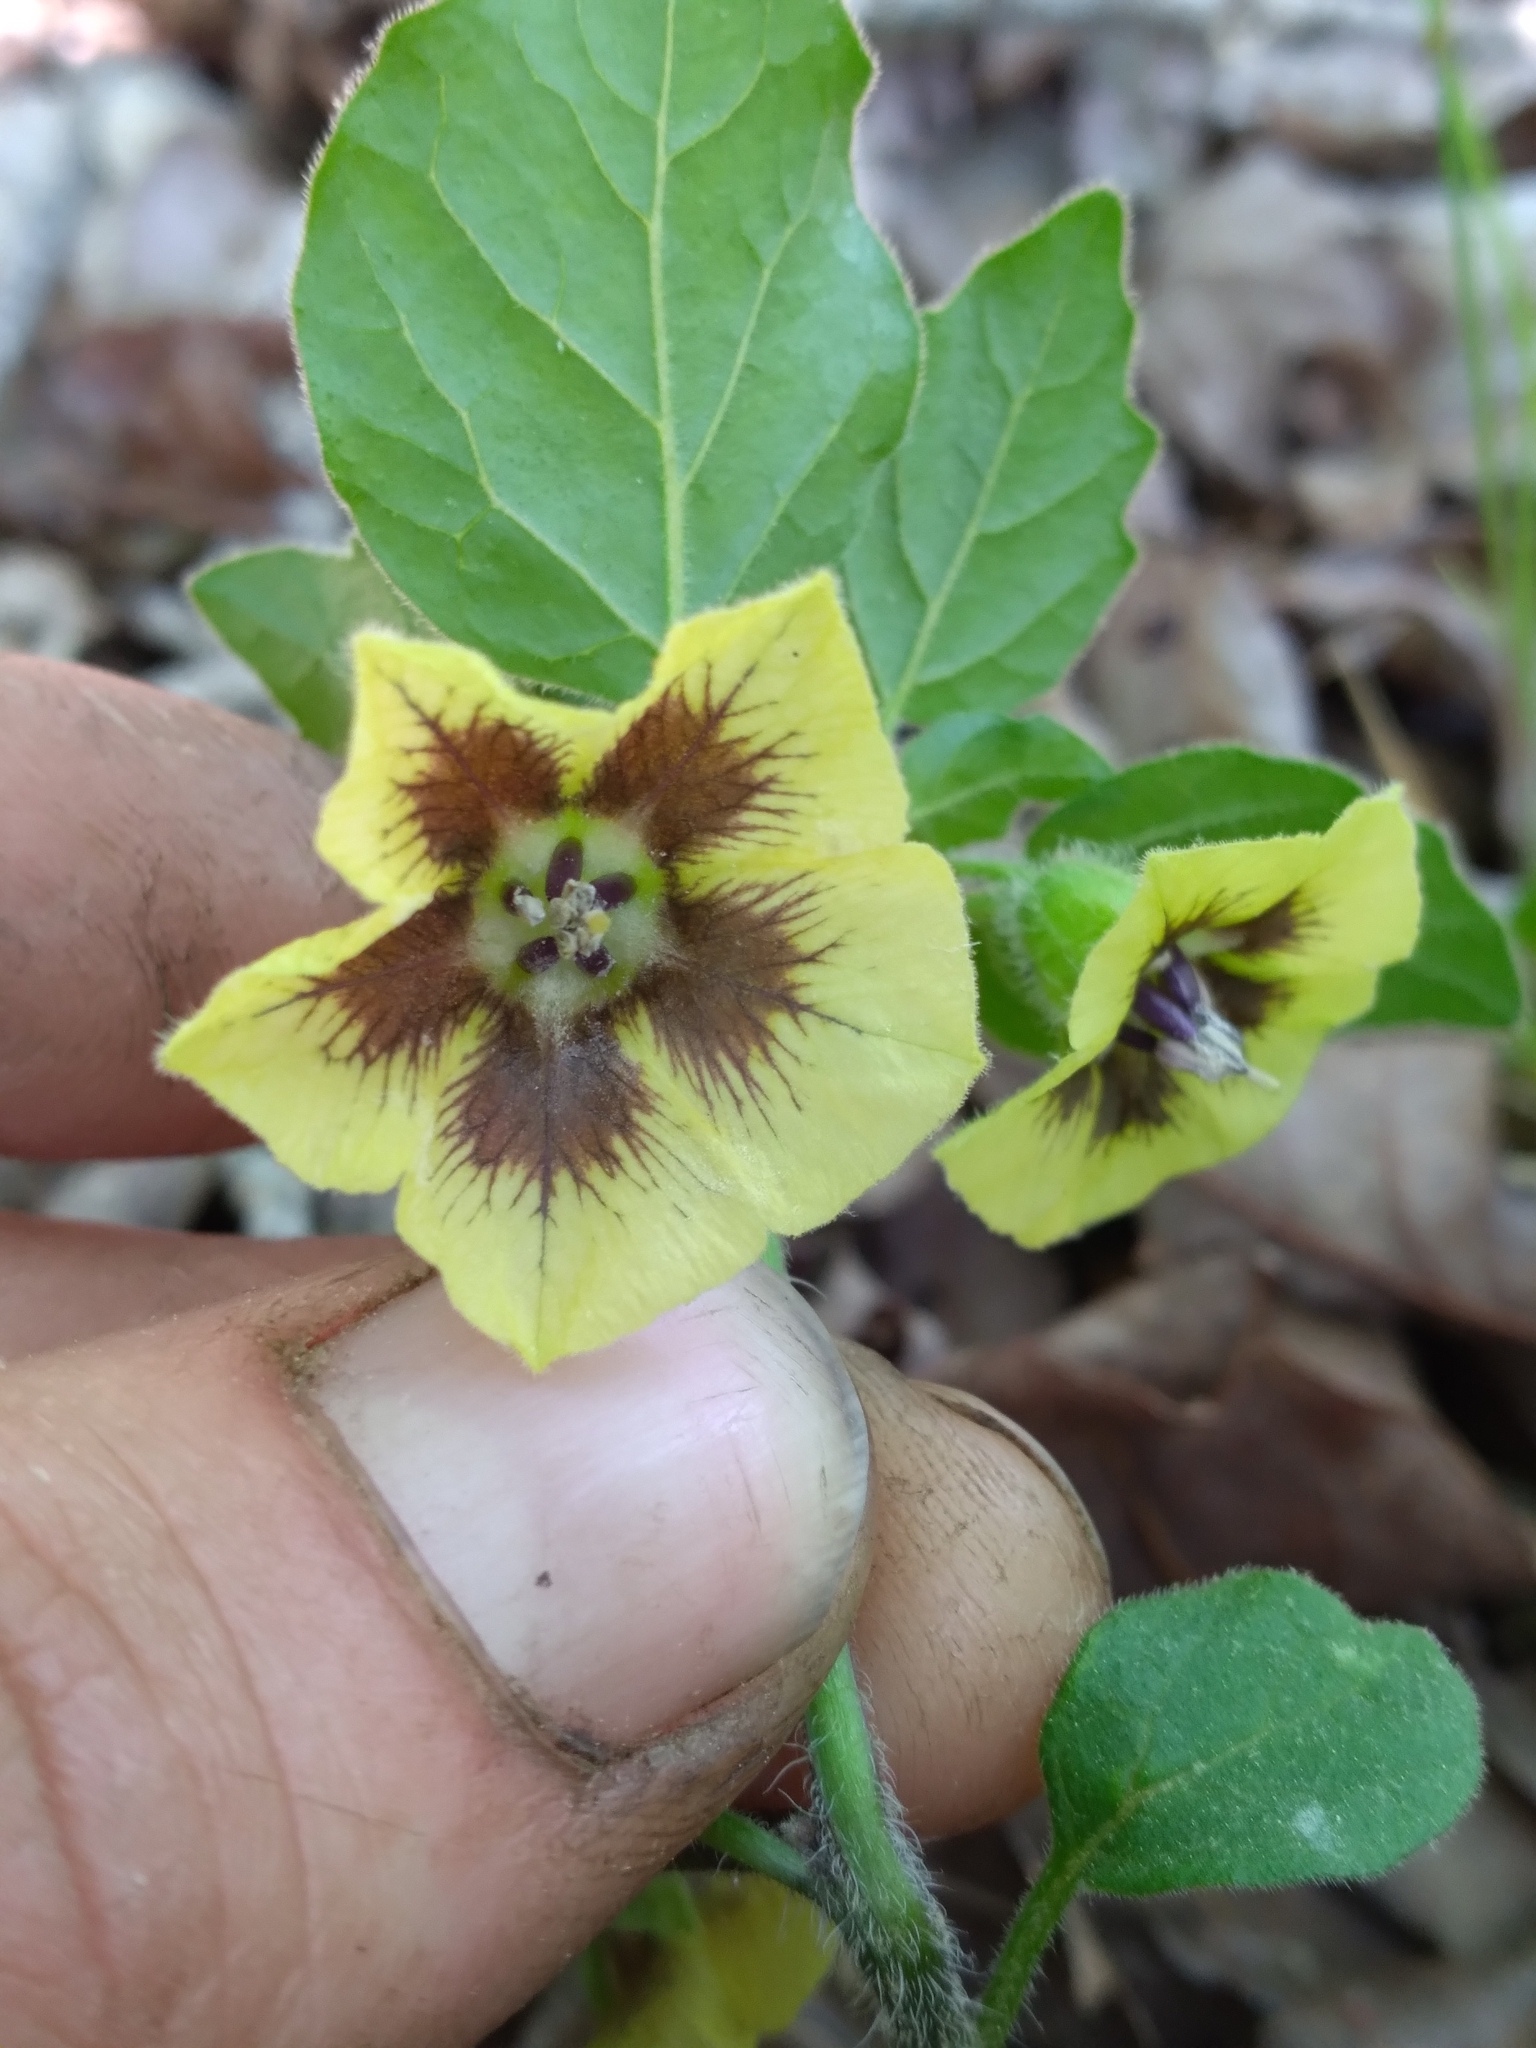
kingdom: Plantae
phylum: Tracheophyta
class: Magnoliopsida
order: Solanales
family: Solanaceae
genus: Physalis
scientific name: Physalis virginiana
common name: Virginia ground-cherry
